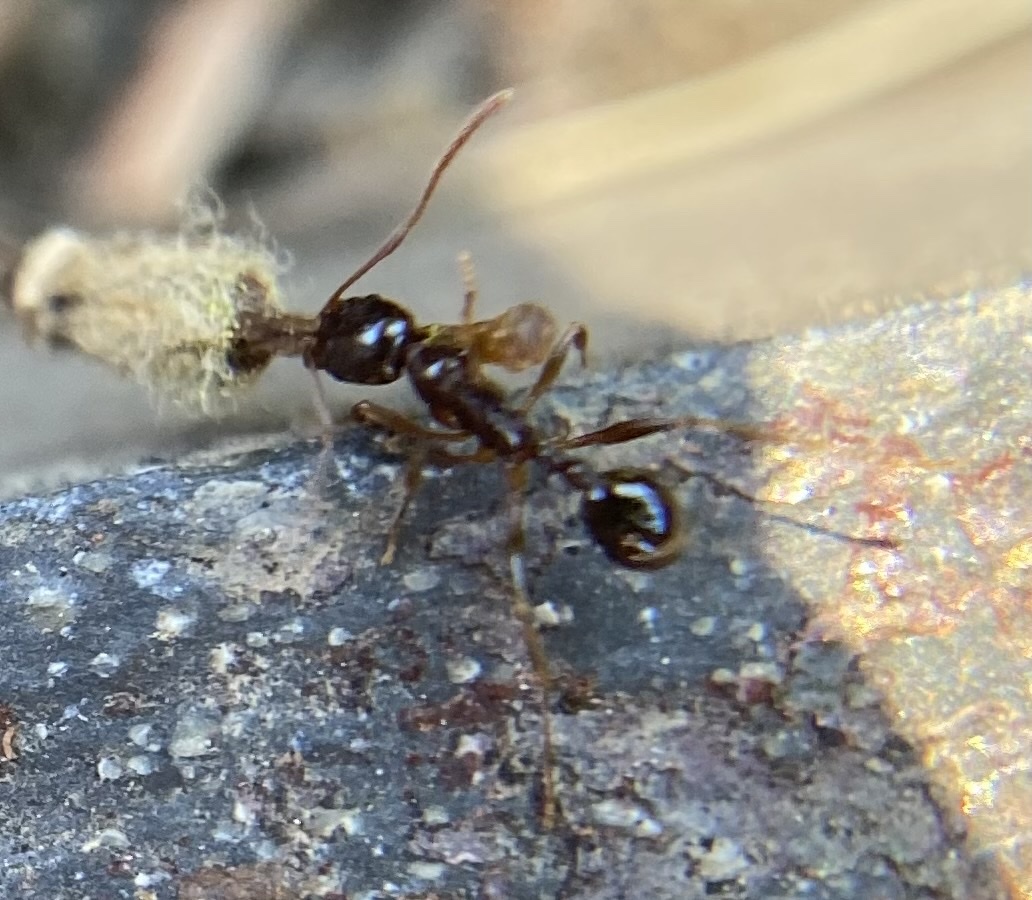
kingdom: Animalia
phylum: Arthropoda
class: Insecta
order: Hymenoptera
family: Formicidae
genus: Aphaenogaster
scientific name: Aphaenogaster occidentalis
